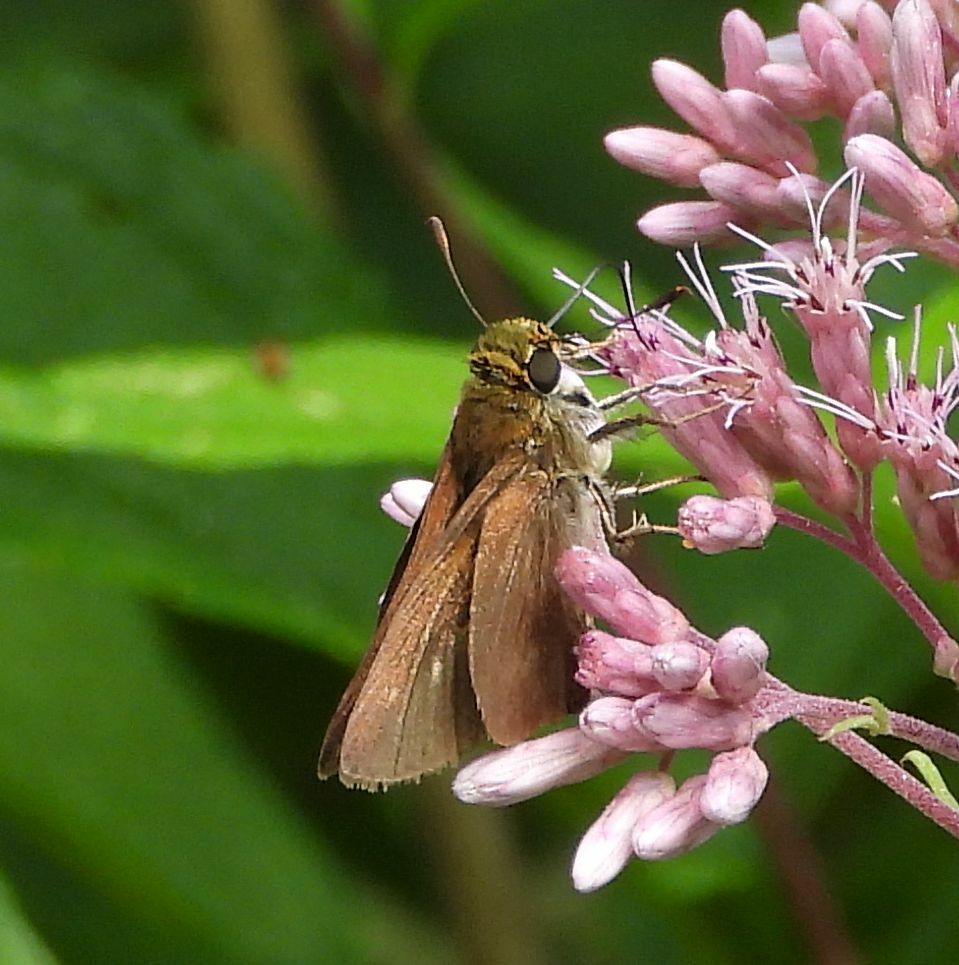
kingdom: Animalia
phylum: Arthropoda
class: Insecta
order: Lepidoptera
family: Hesperiidae
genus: Euphyes
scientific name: Euphyes vestris
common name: Dun skipper
